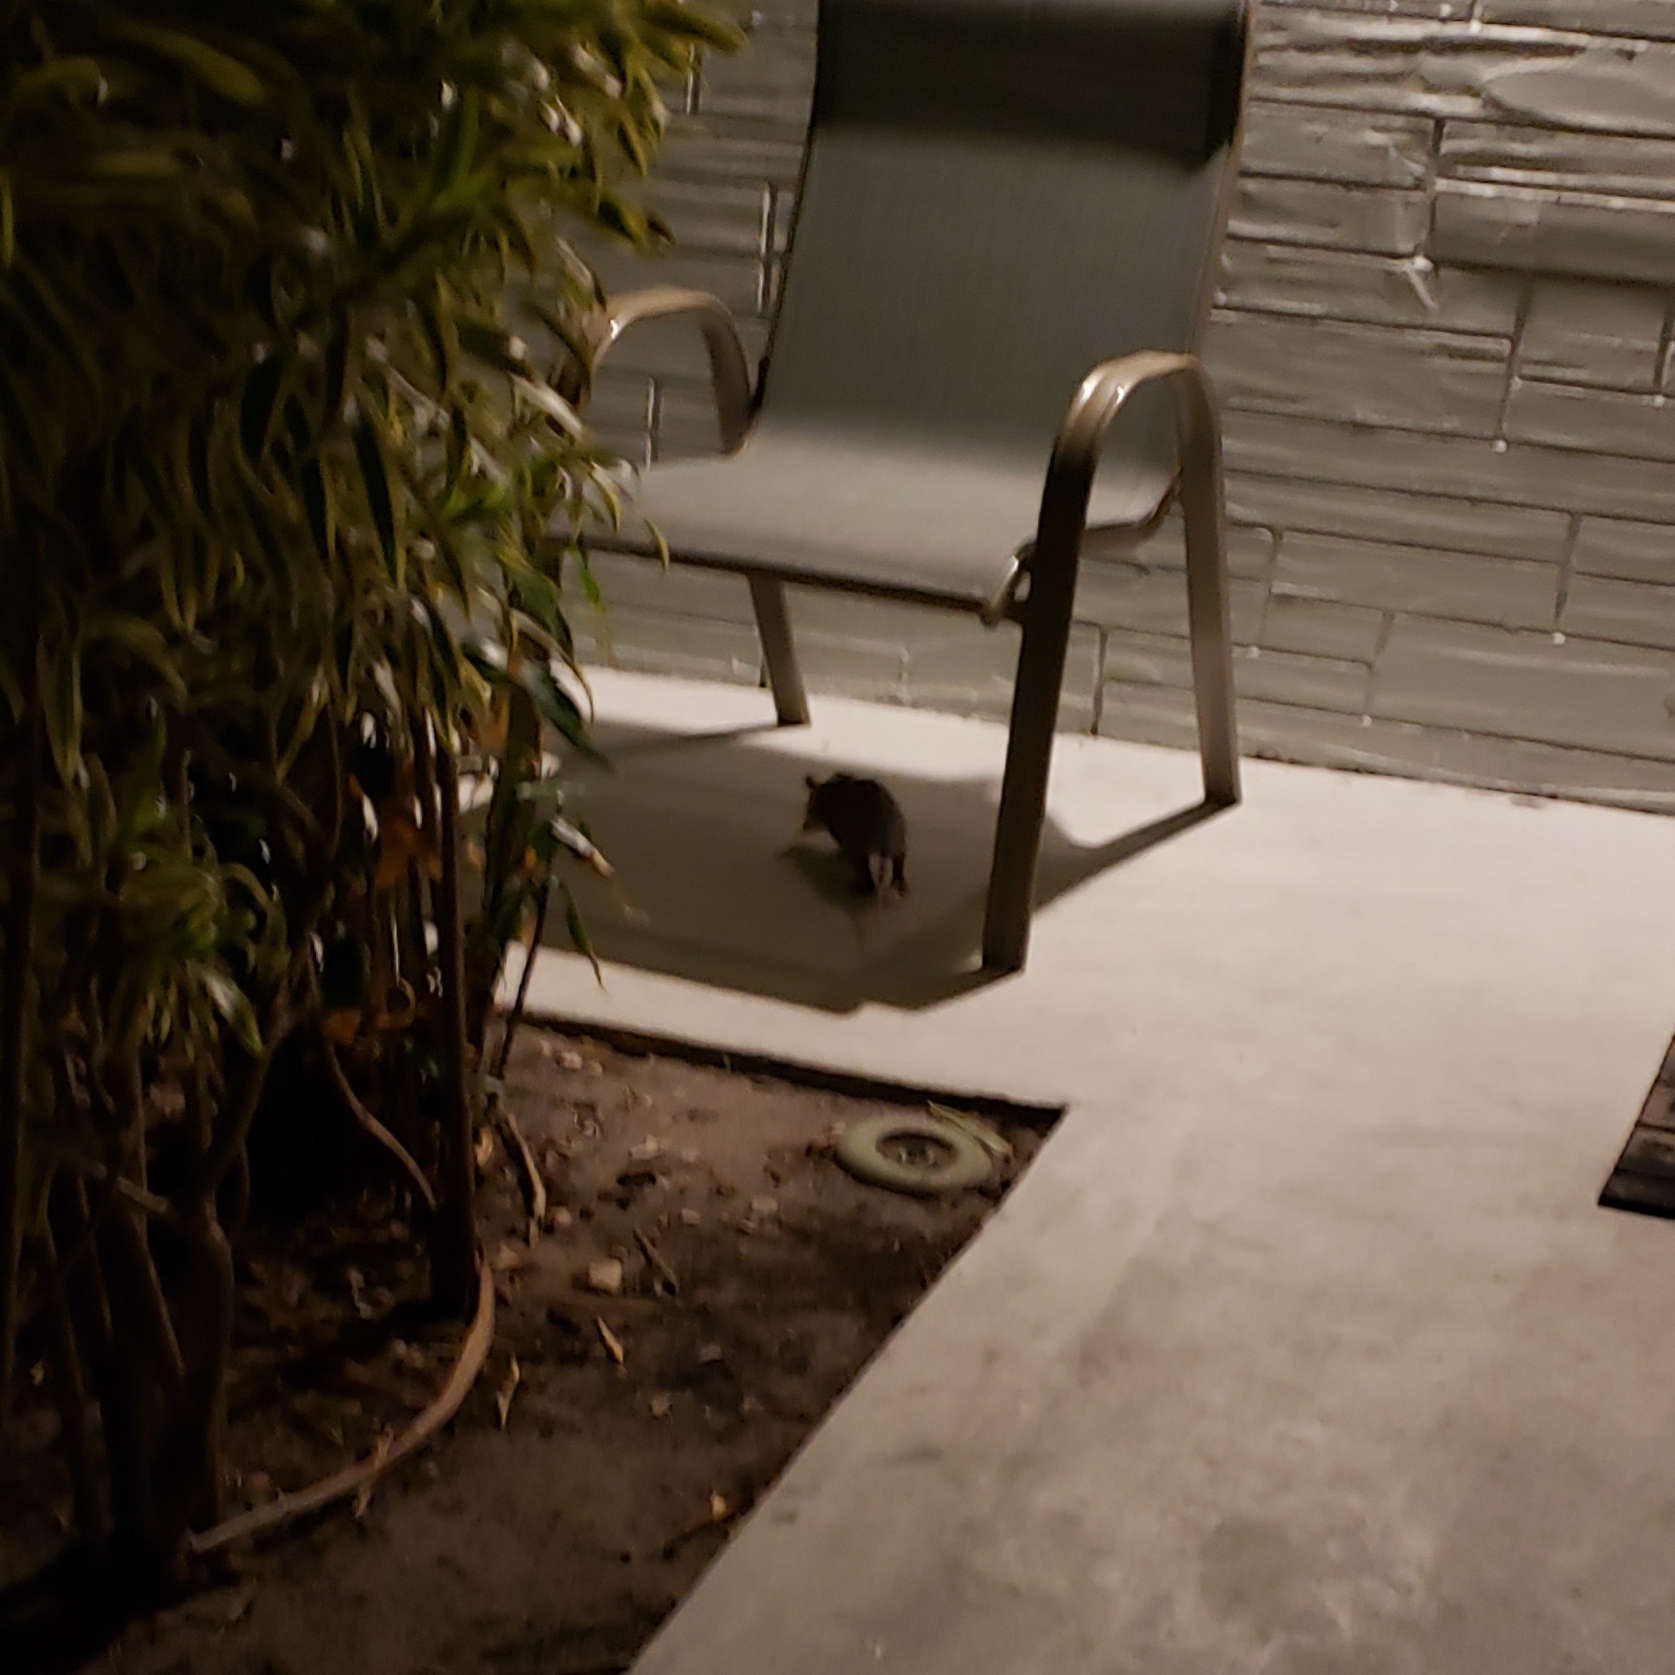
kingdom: Animalia
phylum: Chordata
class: Mammalia
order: Didelphimorphia
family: Didelphidae
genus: Didelphis
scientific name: Didelphis virginiana
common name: Virginia opossum
